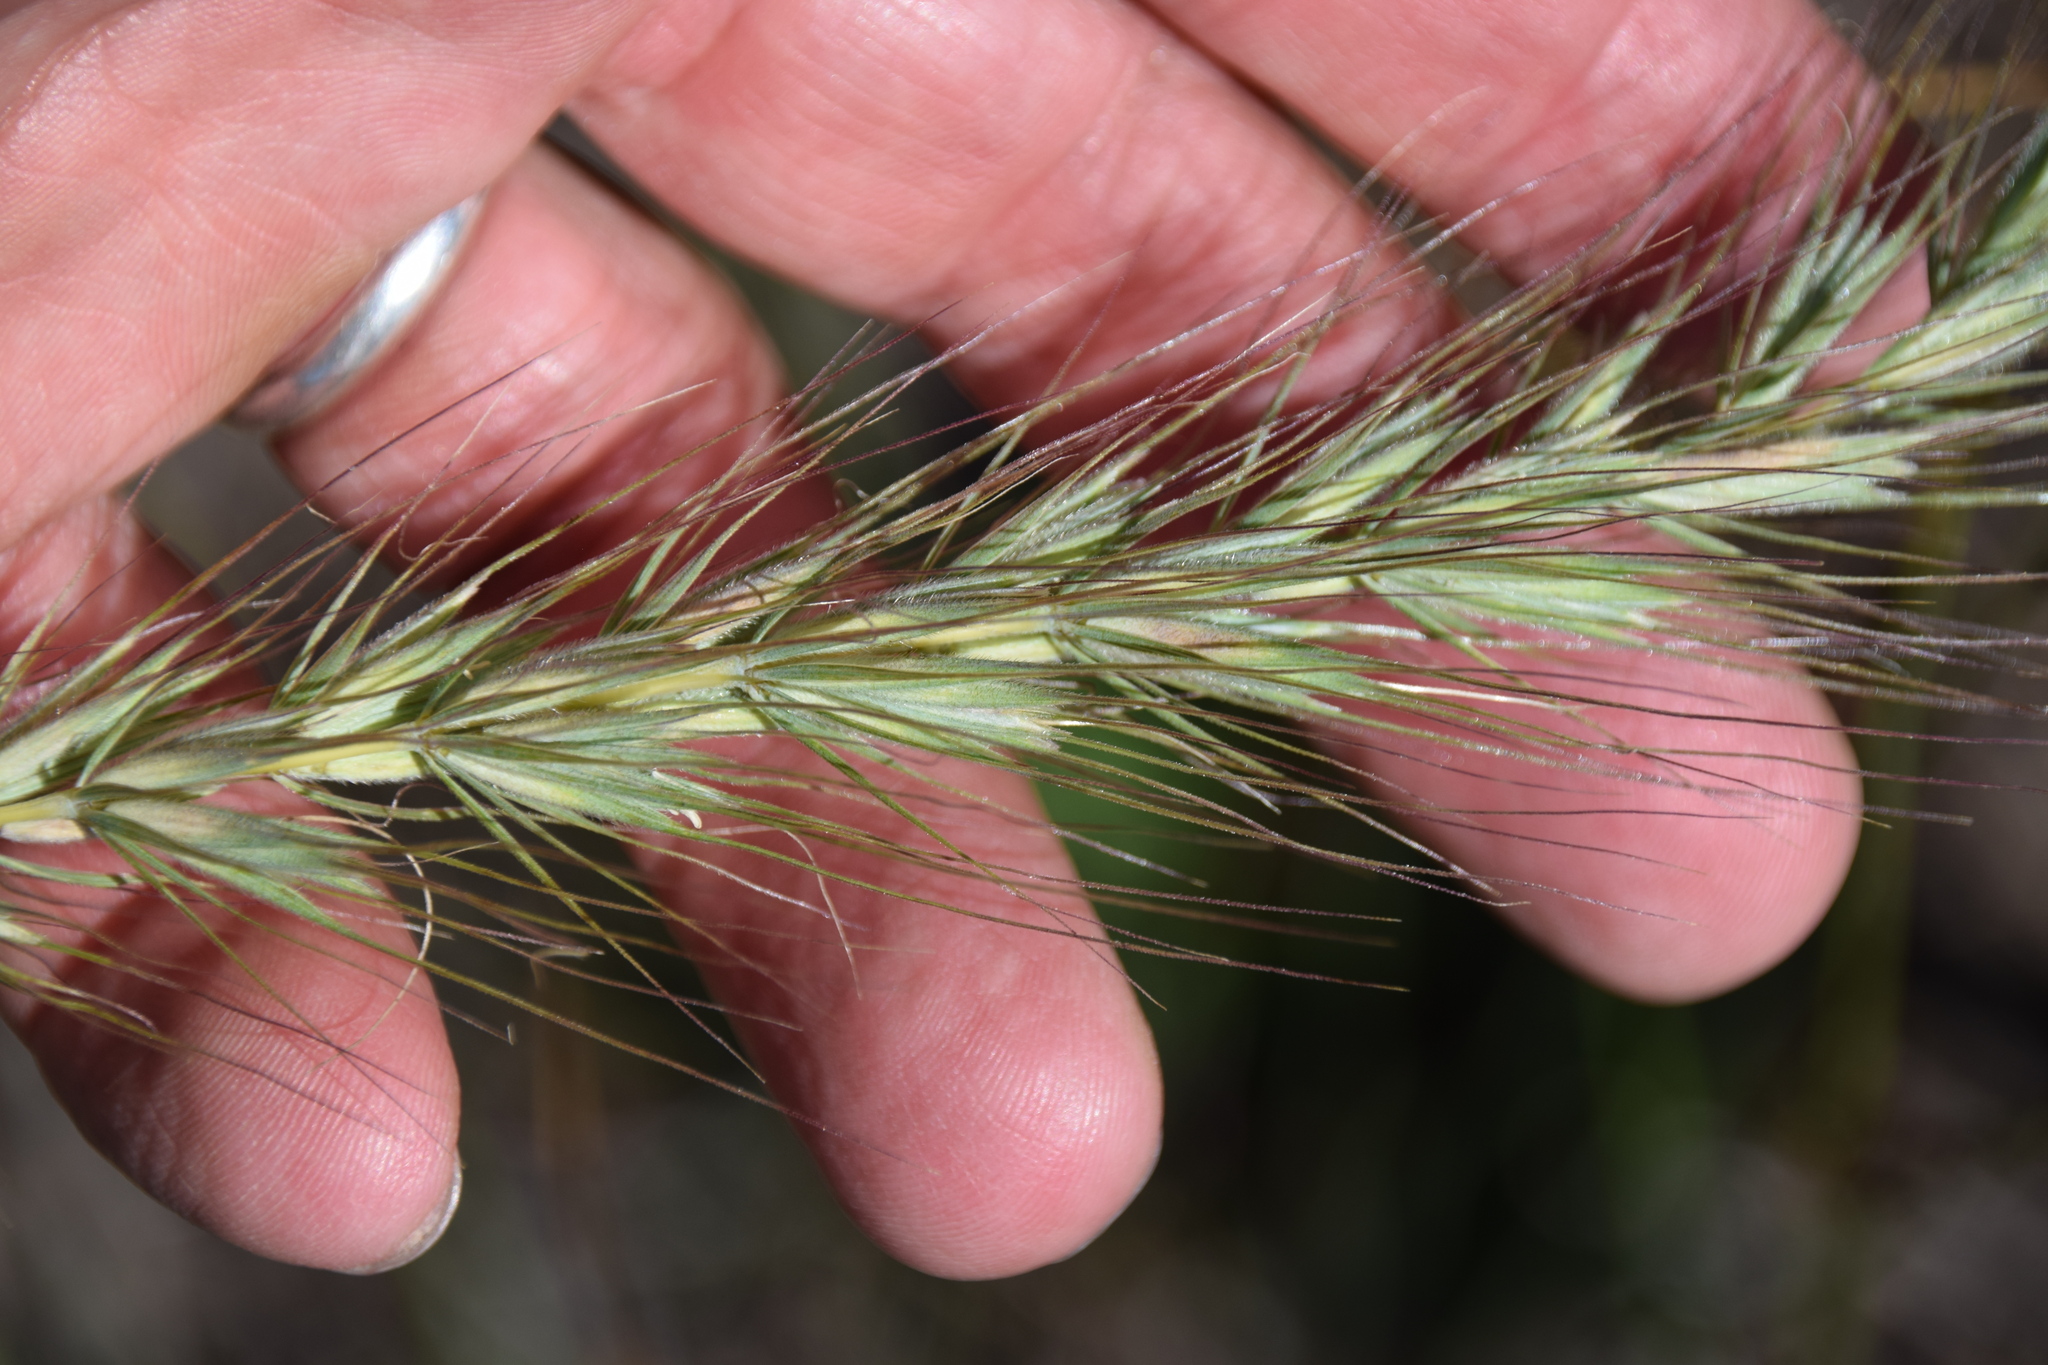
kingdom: Plantae
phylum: Tracheophyta
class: Liliopsida
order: Poales
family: Poaceae
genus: Elymus
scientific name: Elymus canadensis
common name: Canada wild rye
